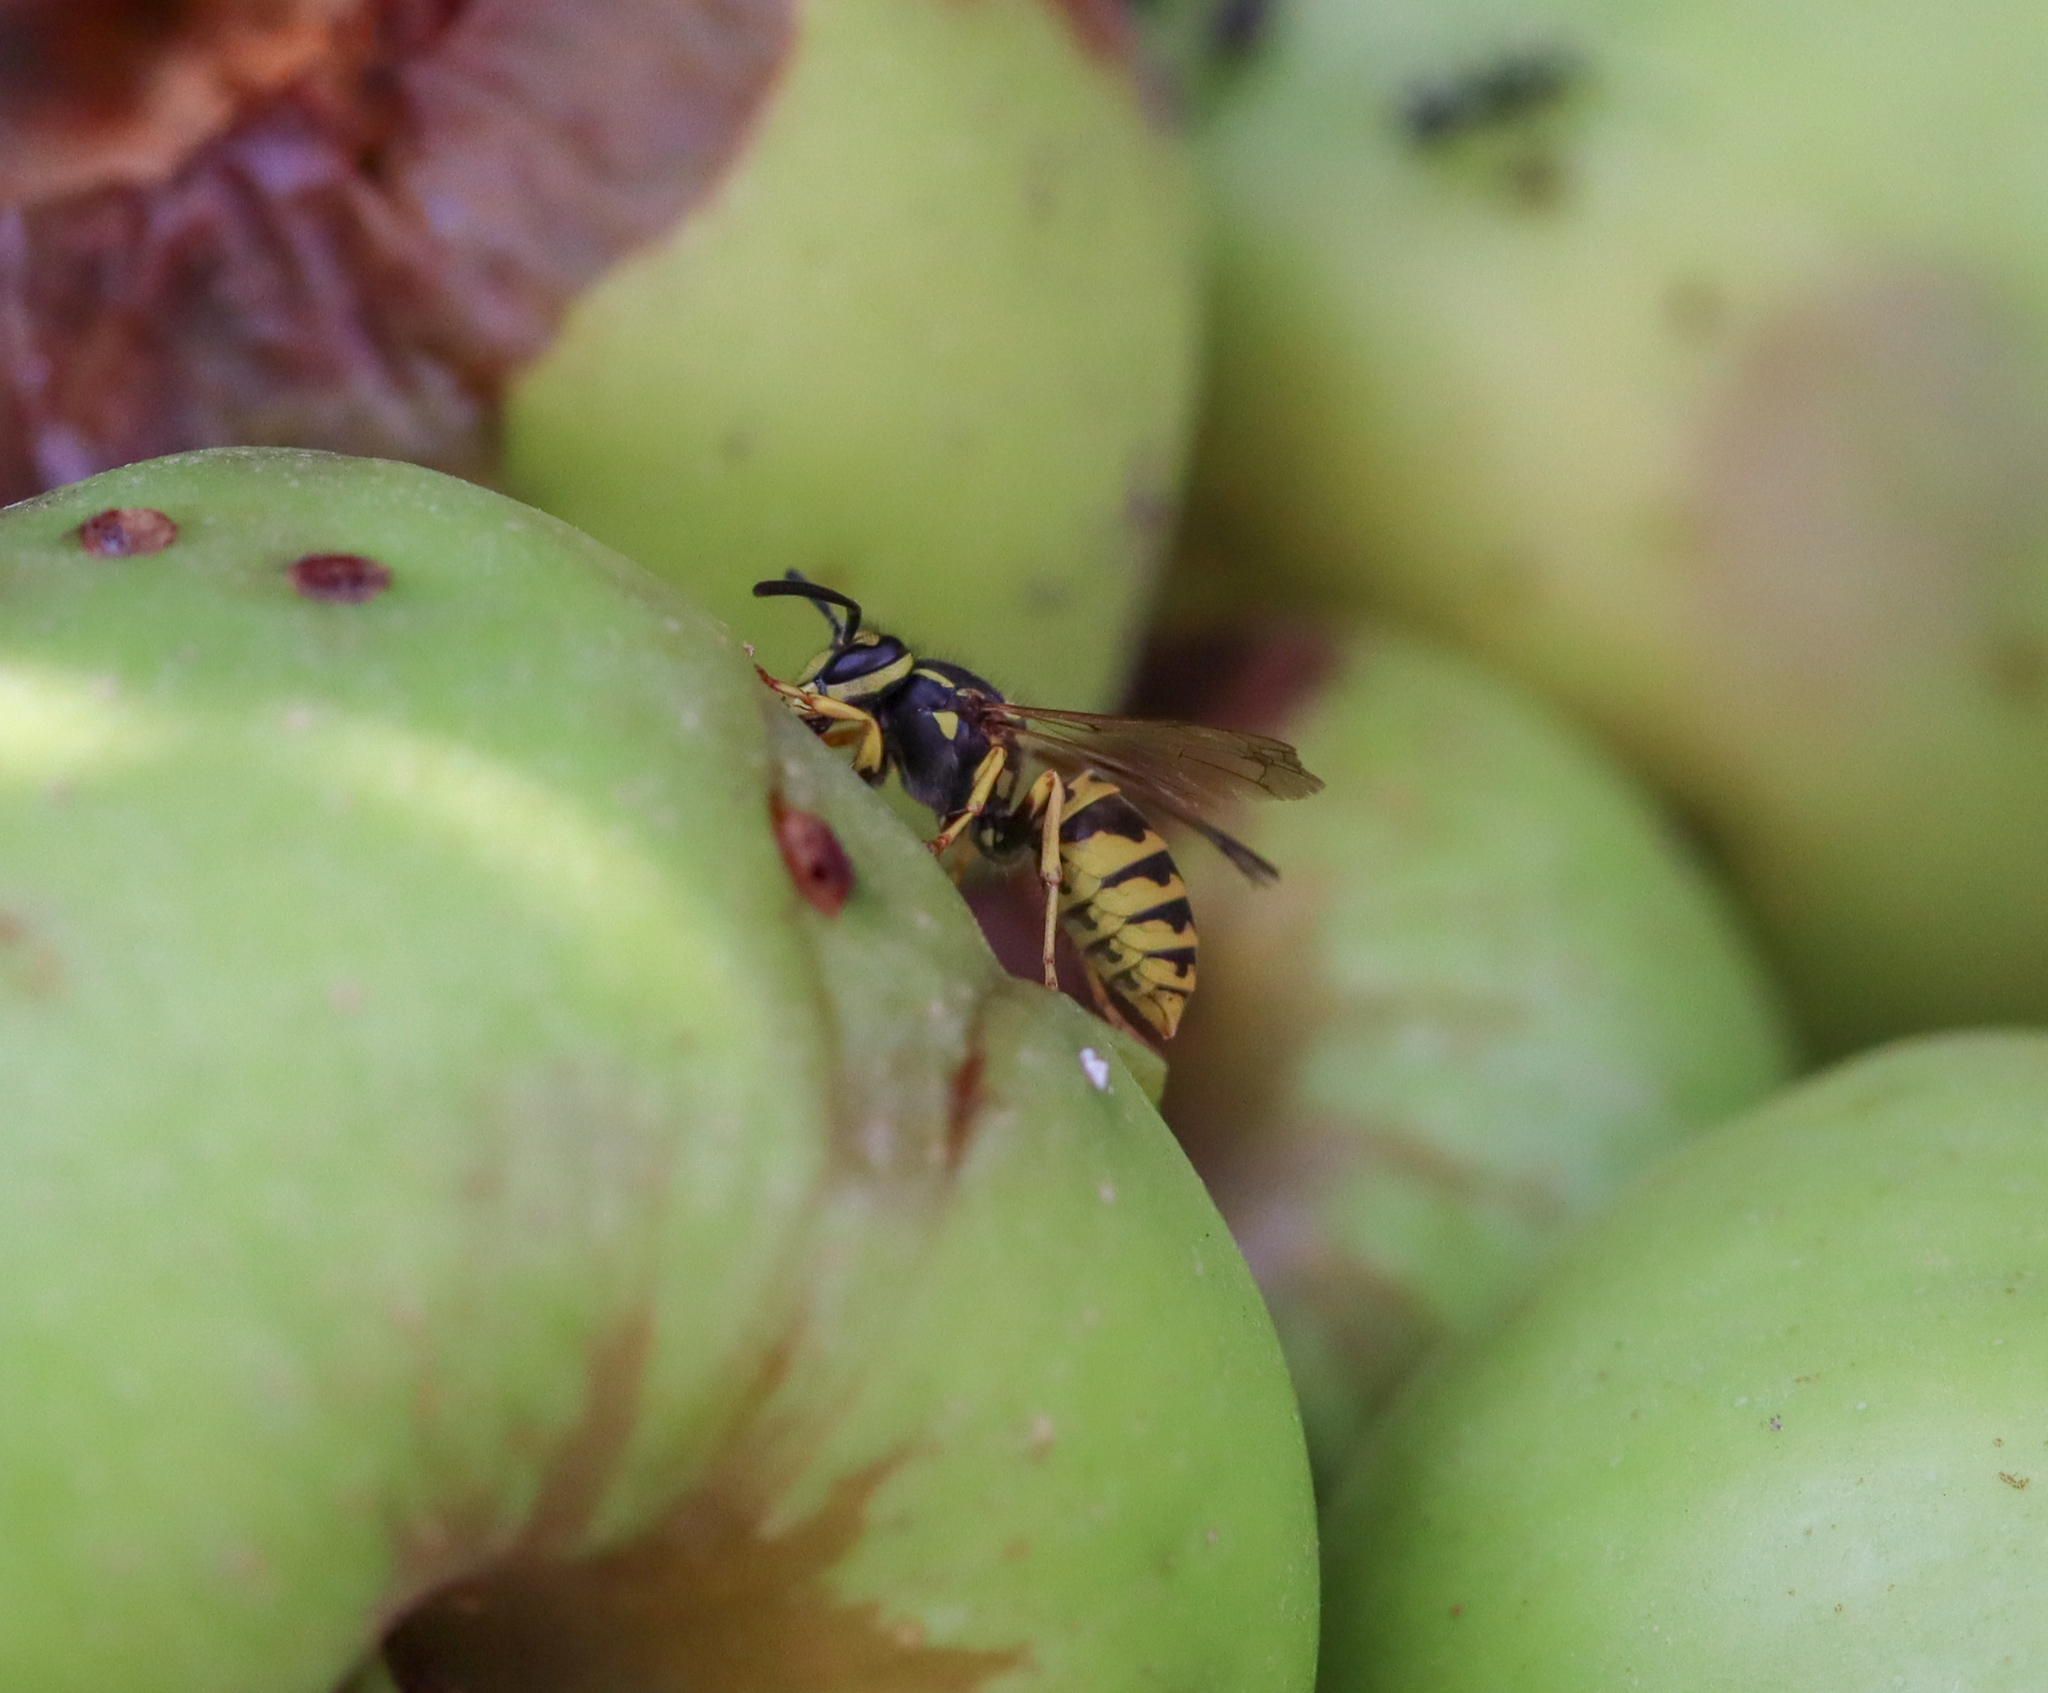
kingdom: Animalia
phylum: Arthropoda
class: Insecta
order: Hymenoptera
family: Vespidae
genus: Vespula
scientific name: Vespula germanica
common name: German wasp
